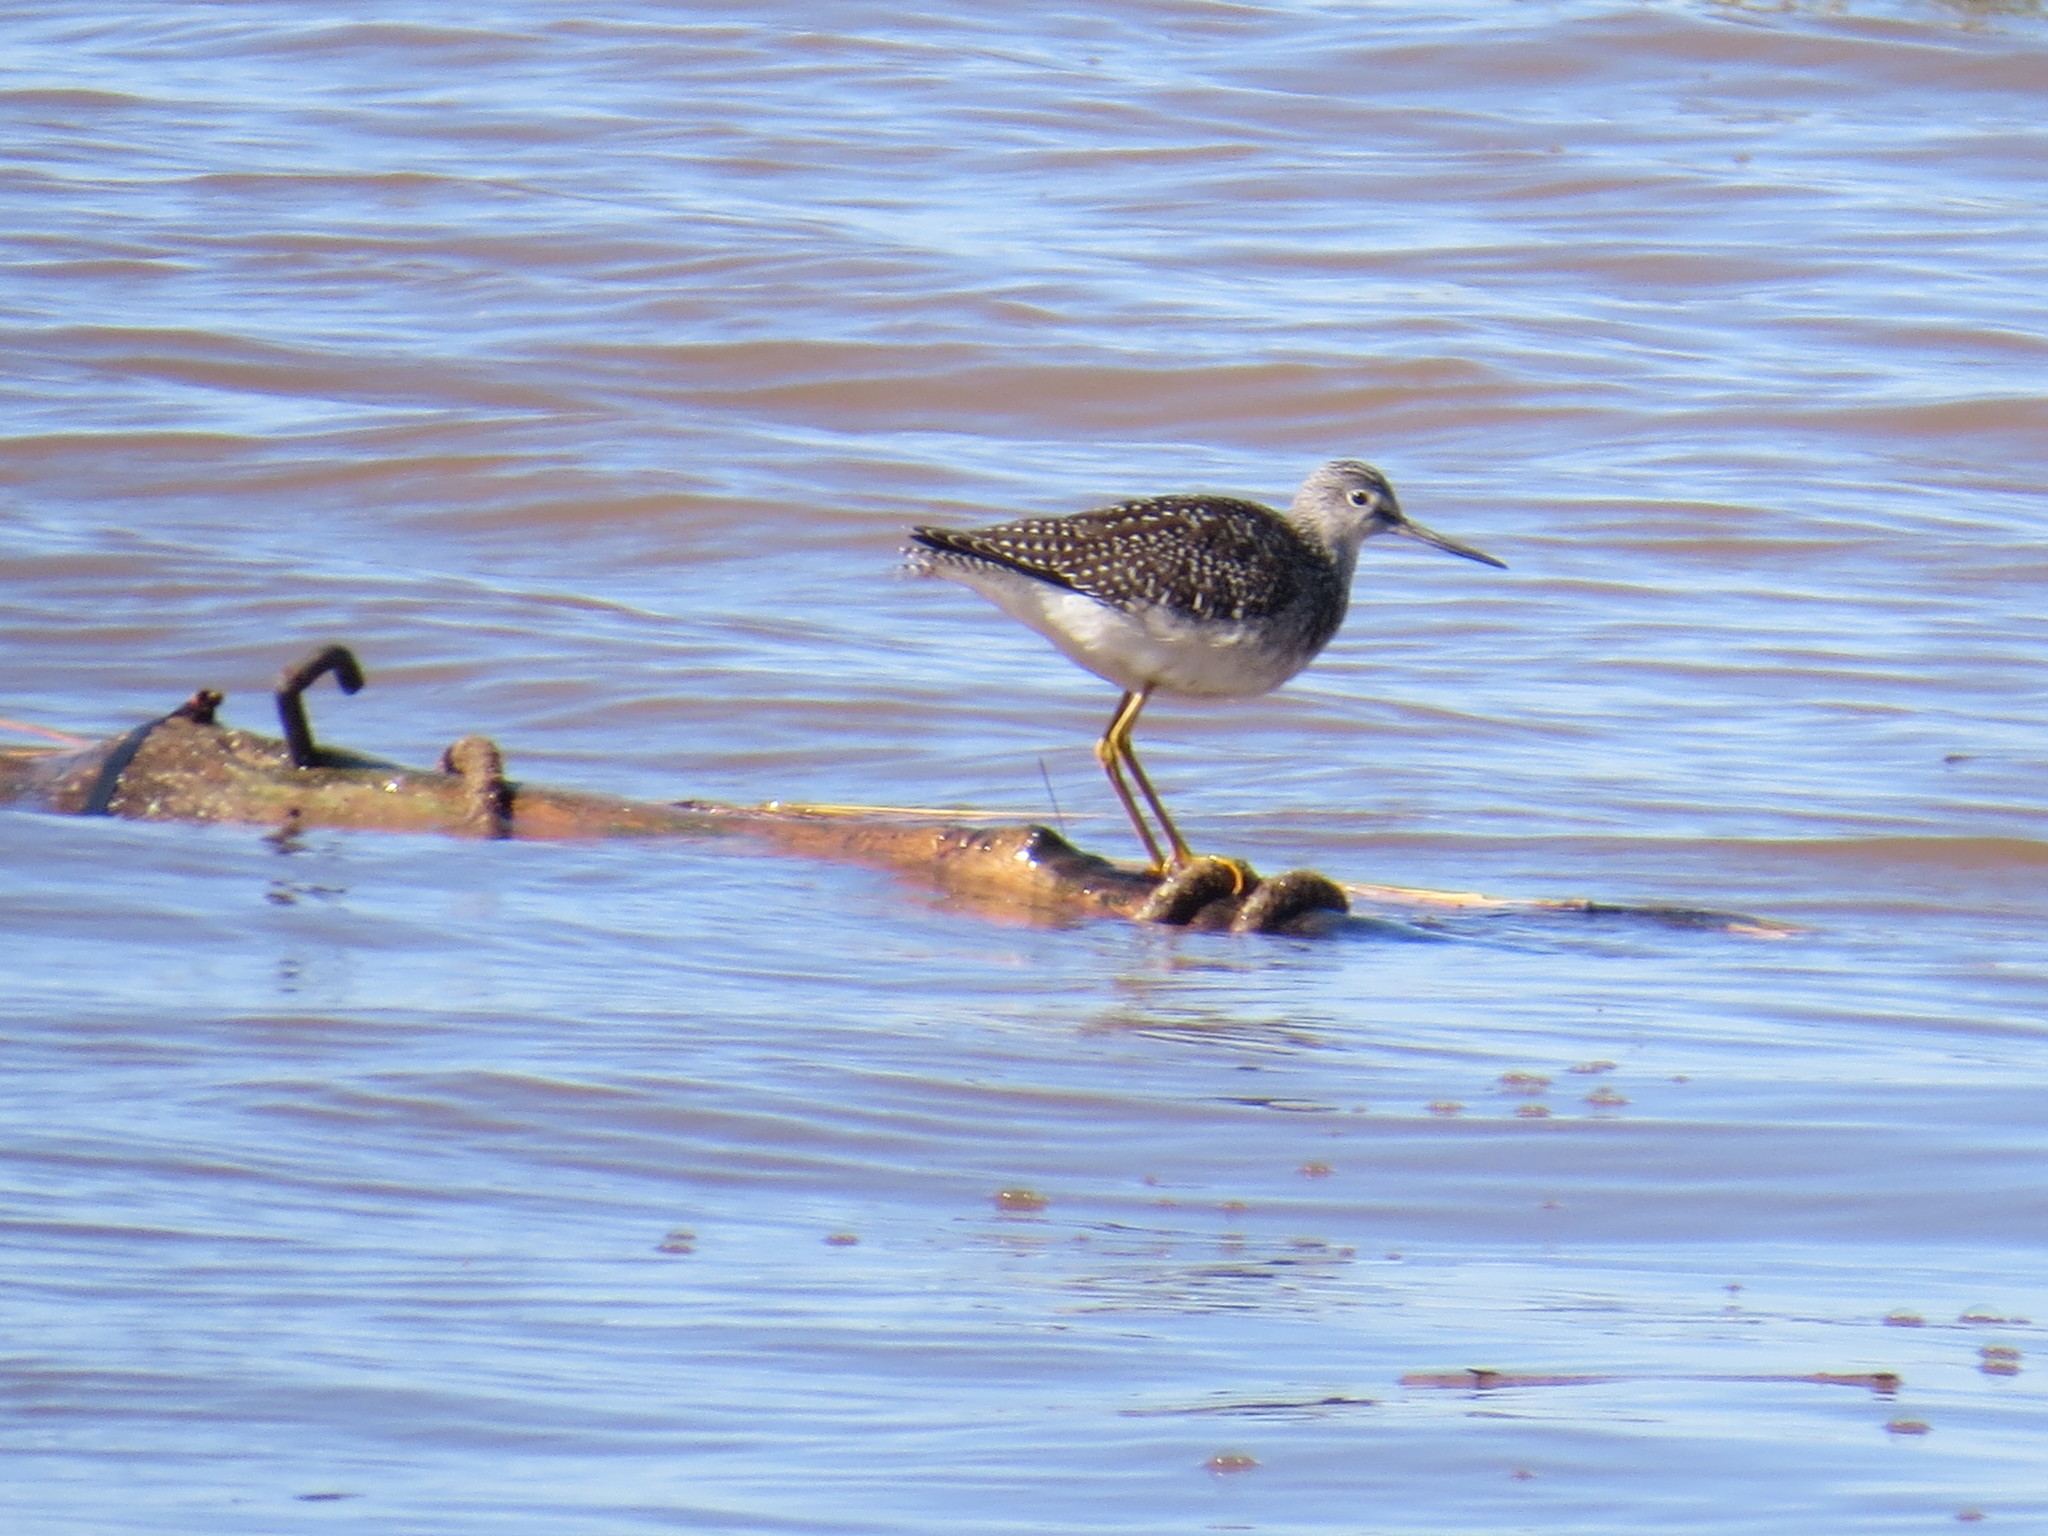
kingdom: Animalia
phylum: Chordata
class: Aves
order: Charadriiformes
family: Scolopacidae
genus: Tringa
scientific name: Tringa melanoleuca
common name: Greater yellowlegs
